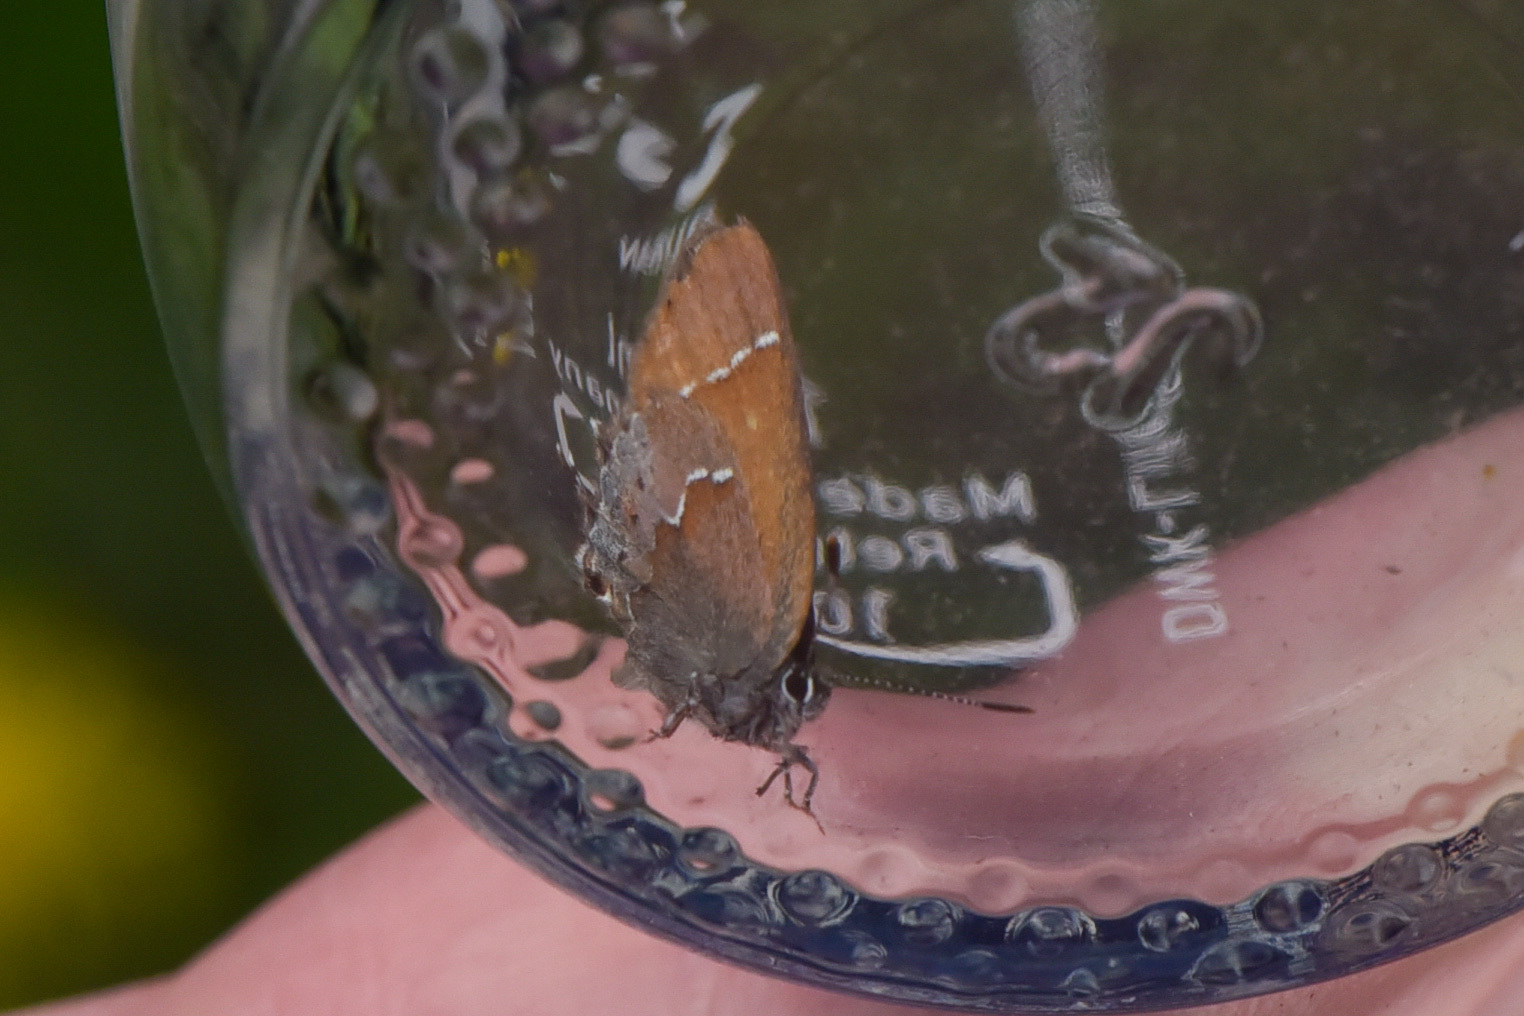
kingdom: Animalia
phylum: Arthropoda
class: Insecta
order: Lepidoptera
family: Lycaenidae
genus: Mitoura
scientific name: Mitoura gryneus
